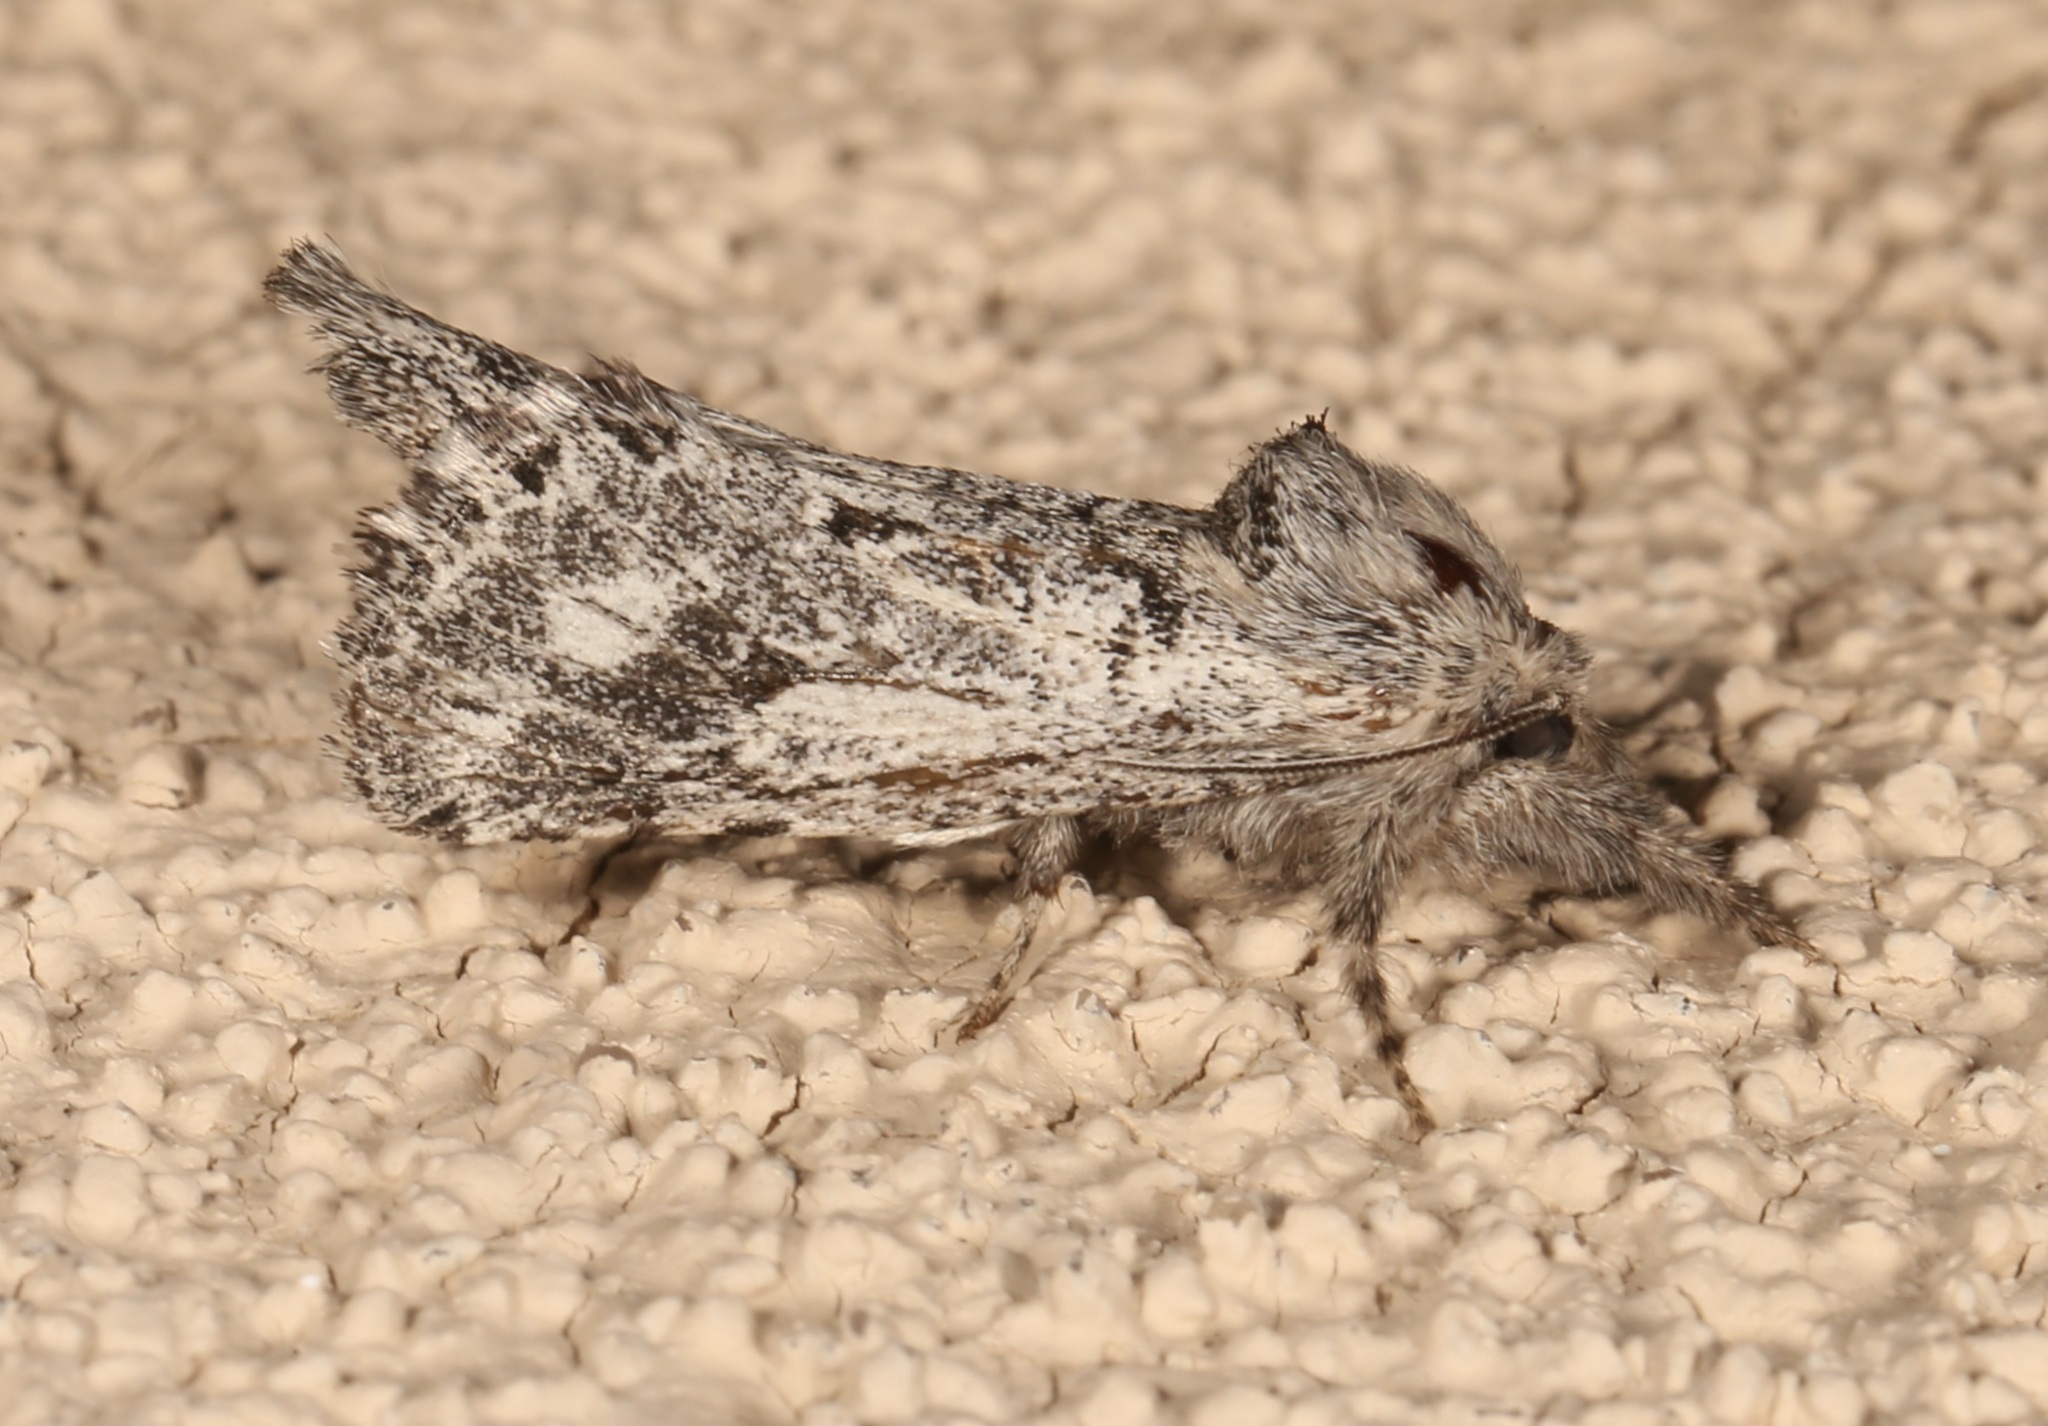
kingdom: Animalia
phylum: Arthropoda
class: Insecta
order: Lepidoptera
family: Cossidae
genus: Givira
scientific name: Givira cleopatra
